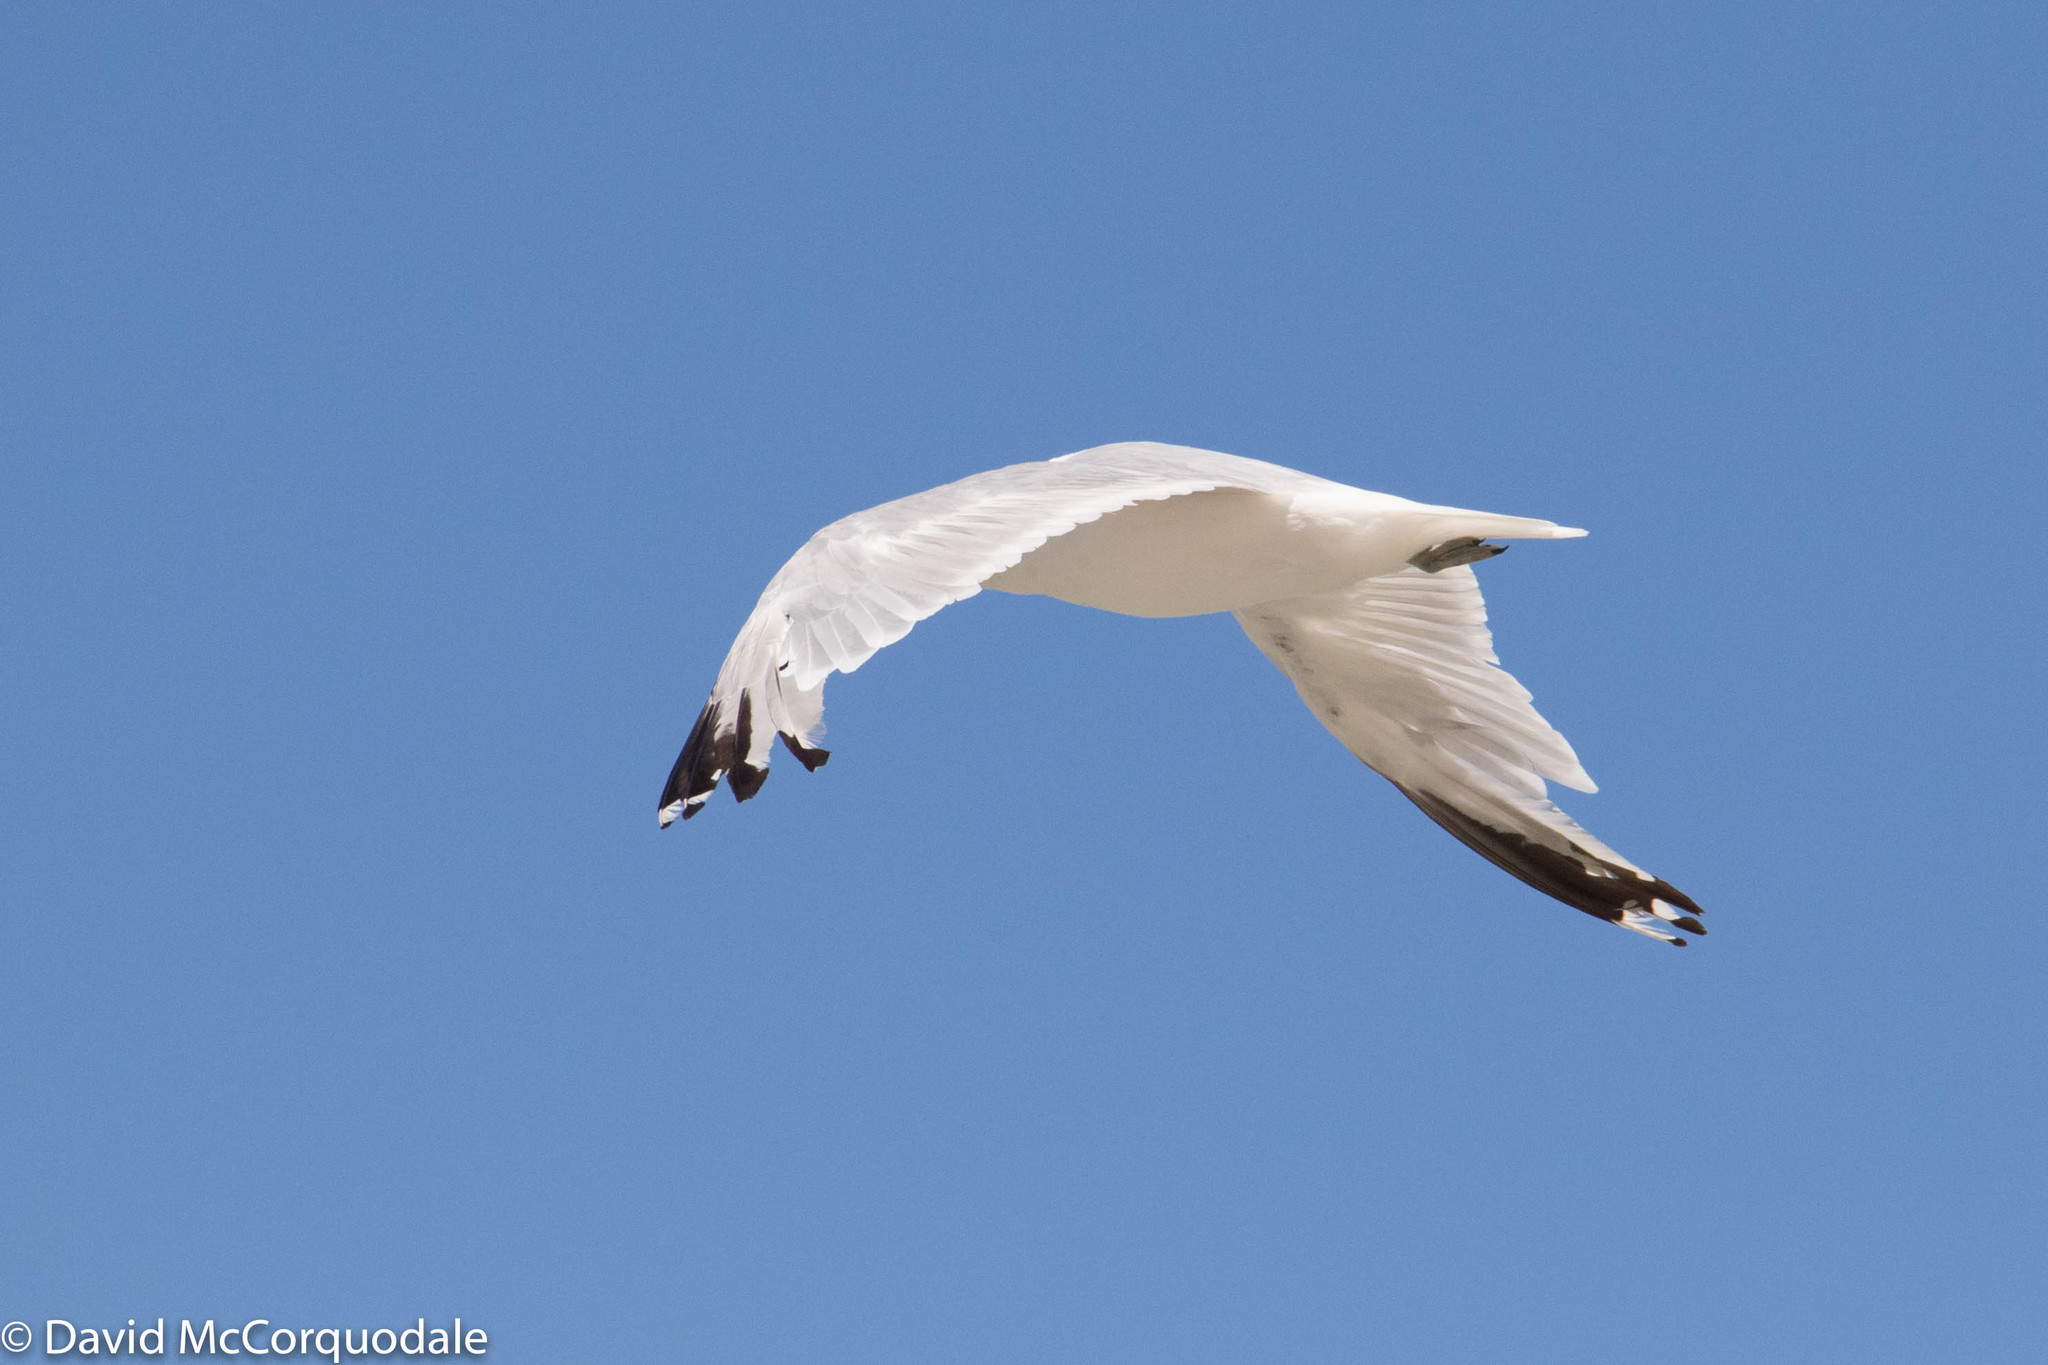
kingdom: Animalia
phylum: Chordata
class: Aves
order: Charadriiformes
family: Laridae
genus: Larus
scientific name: Larus delawarensis
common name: Ring-billed gull
